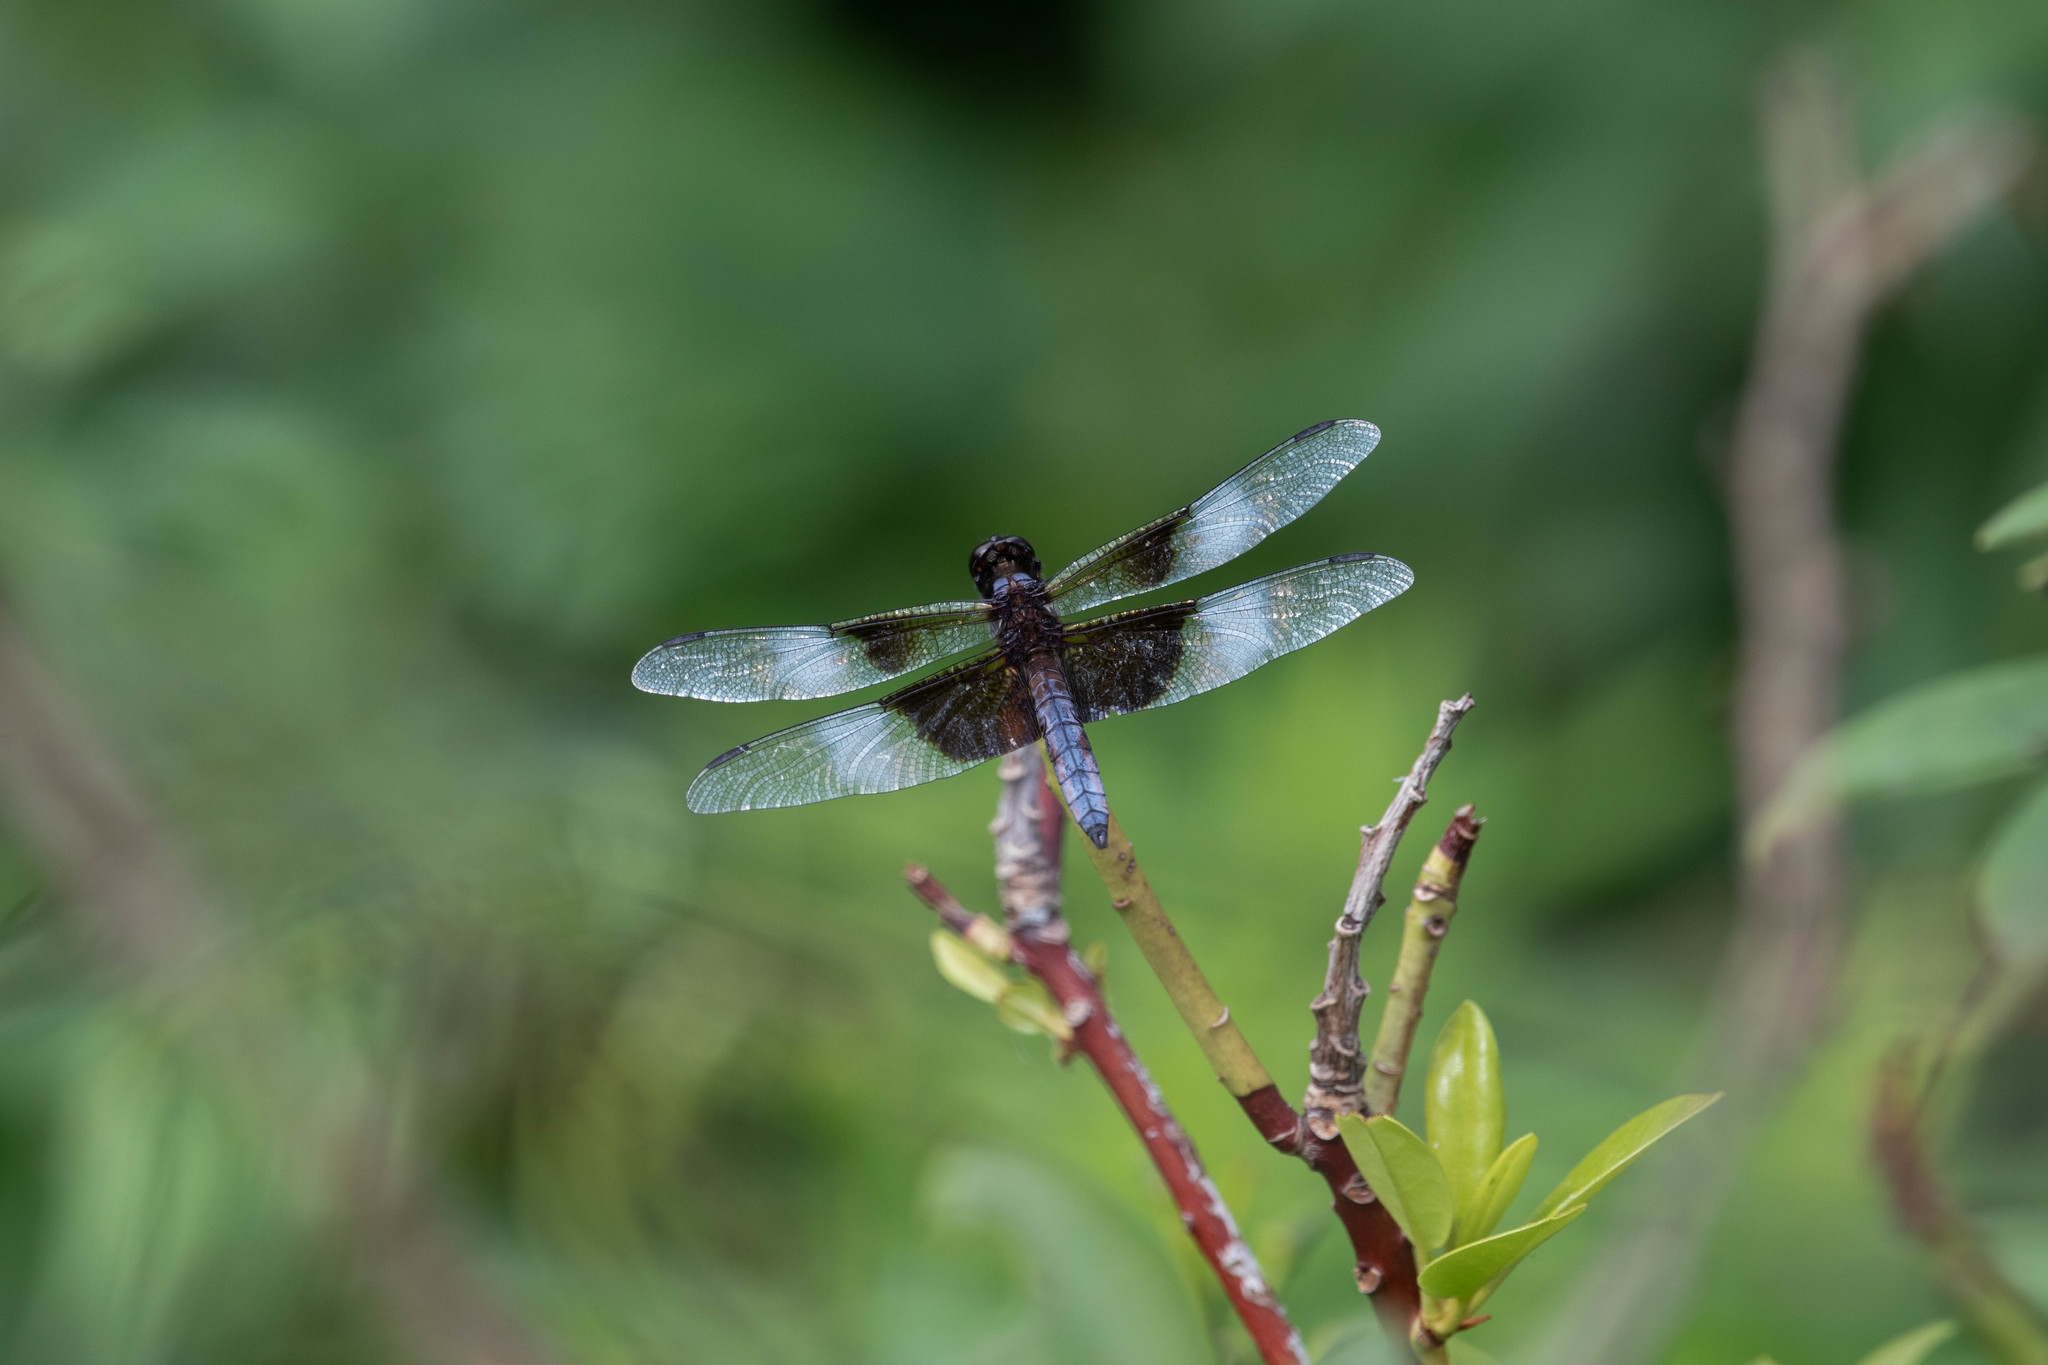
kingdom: Animalia
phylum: Arthropoda
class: Insecta
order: Odonata
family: Libellulidae
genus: Libellula
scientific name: Libellula luctuosa
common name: Widow skimmer
